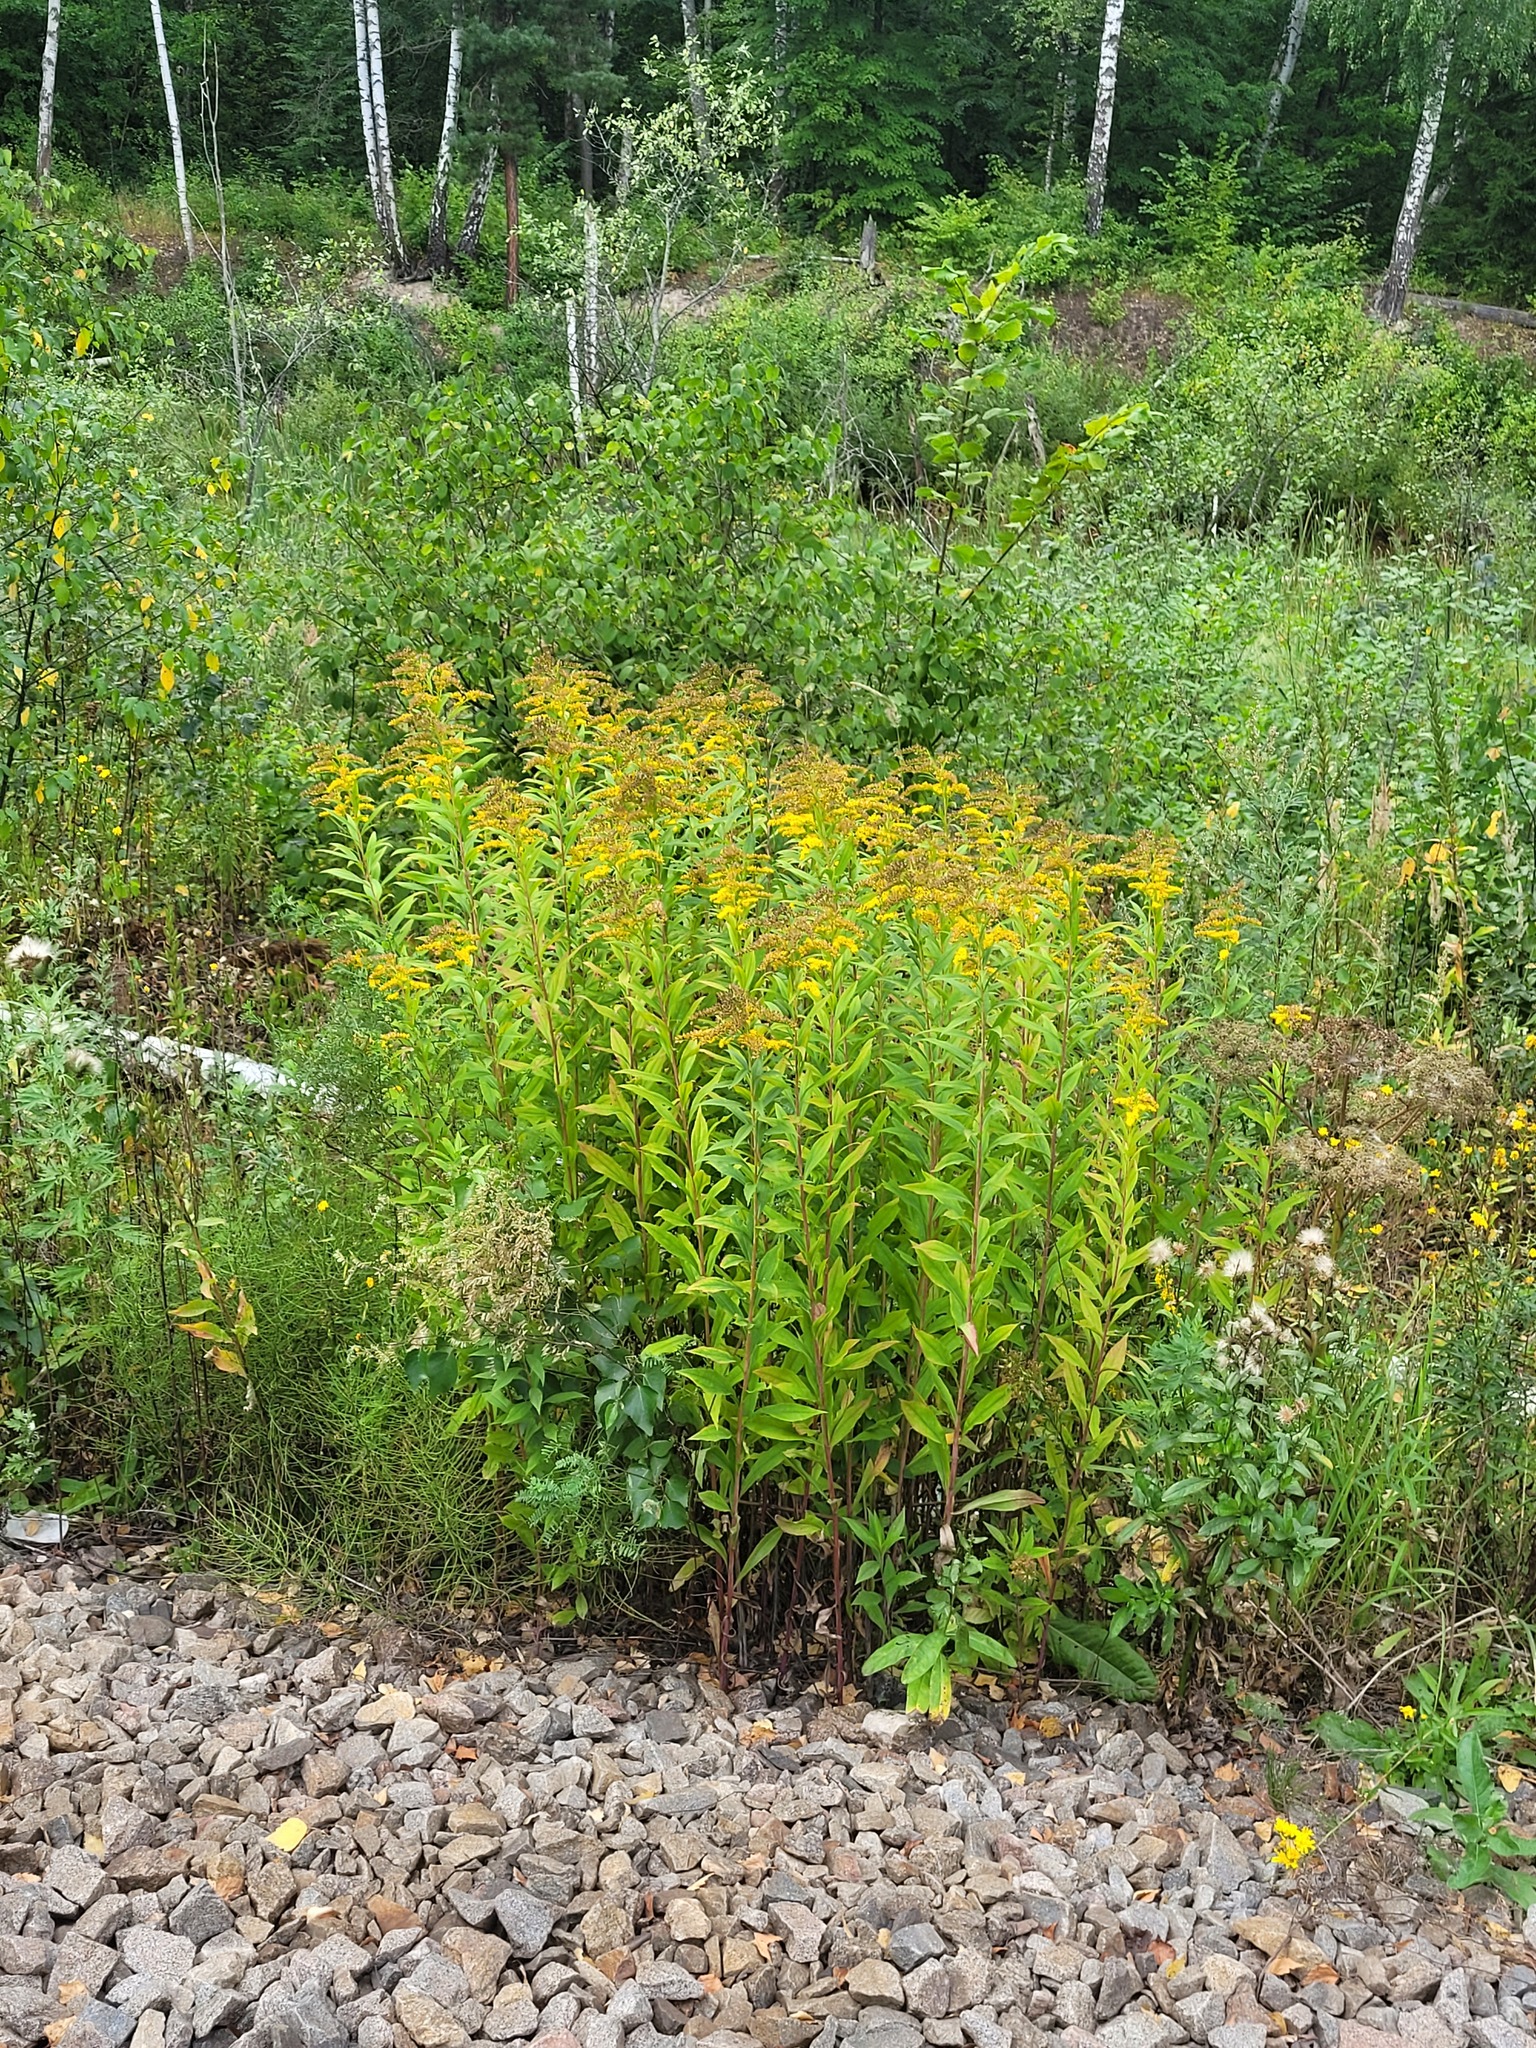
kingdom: Plantae
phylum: Tracheophyta
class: Magnoliopsida
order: Asterales
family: Asteraceae
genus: Solidago
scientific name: Solidago gigantea
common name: Giant goldenrod
